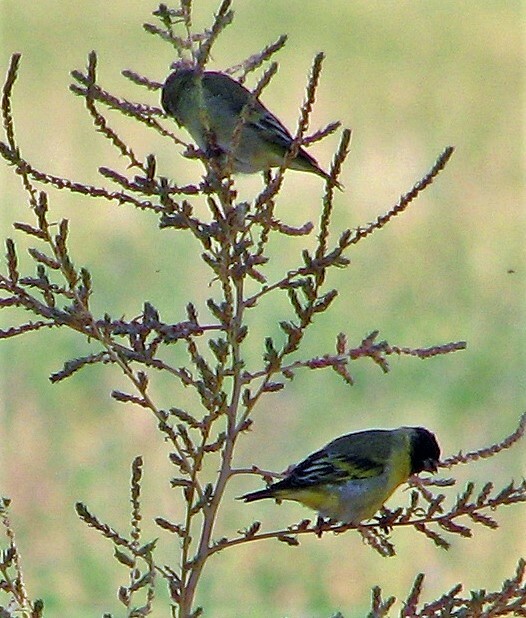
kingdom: Animalia
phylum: Chordata
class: Aves
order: Passeriformes
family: Fringillidae
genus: Spinus
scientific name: Spinus magellanicus
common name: Hooded siskin
